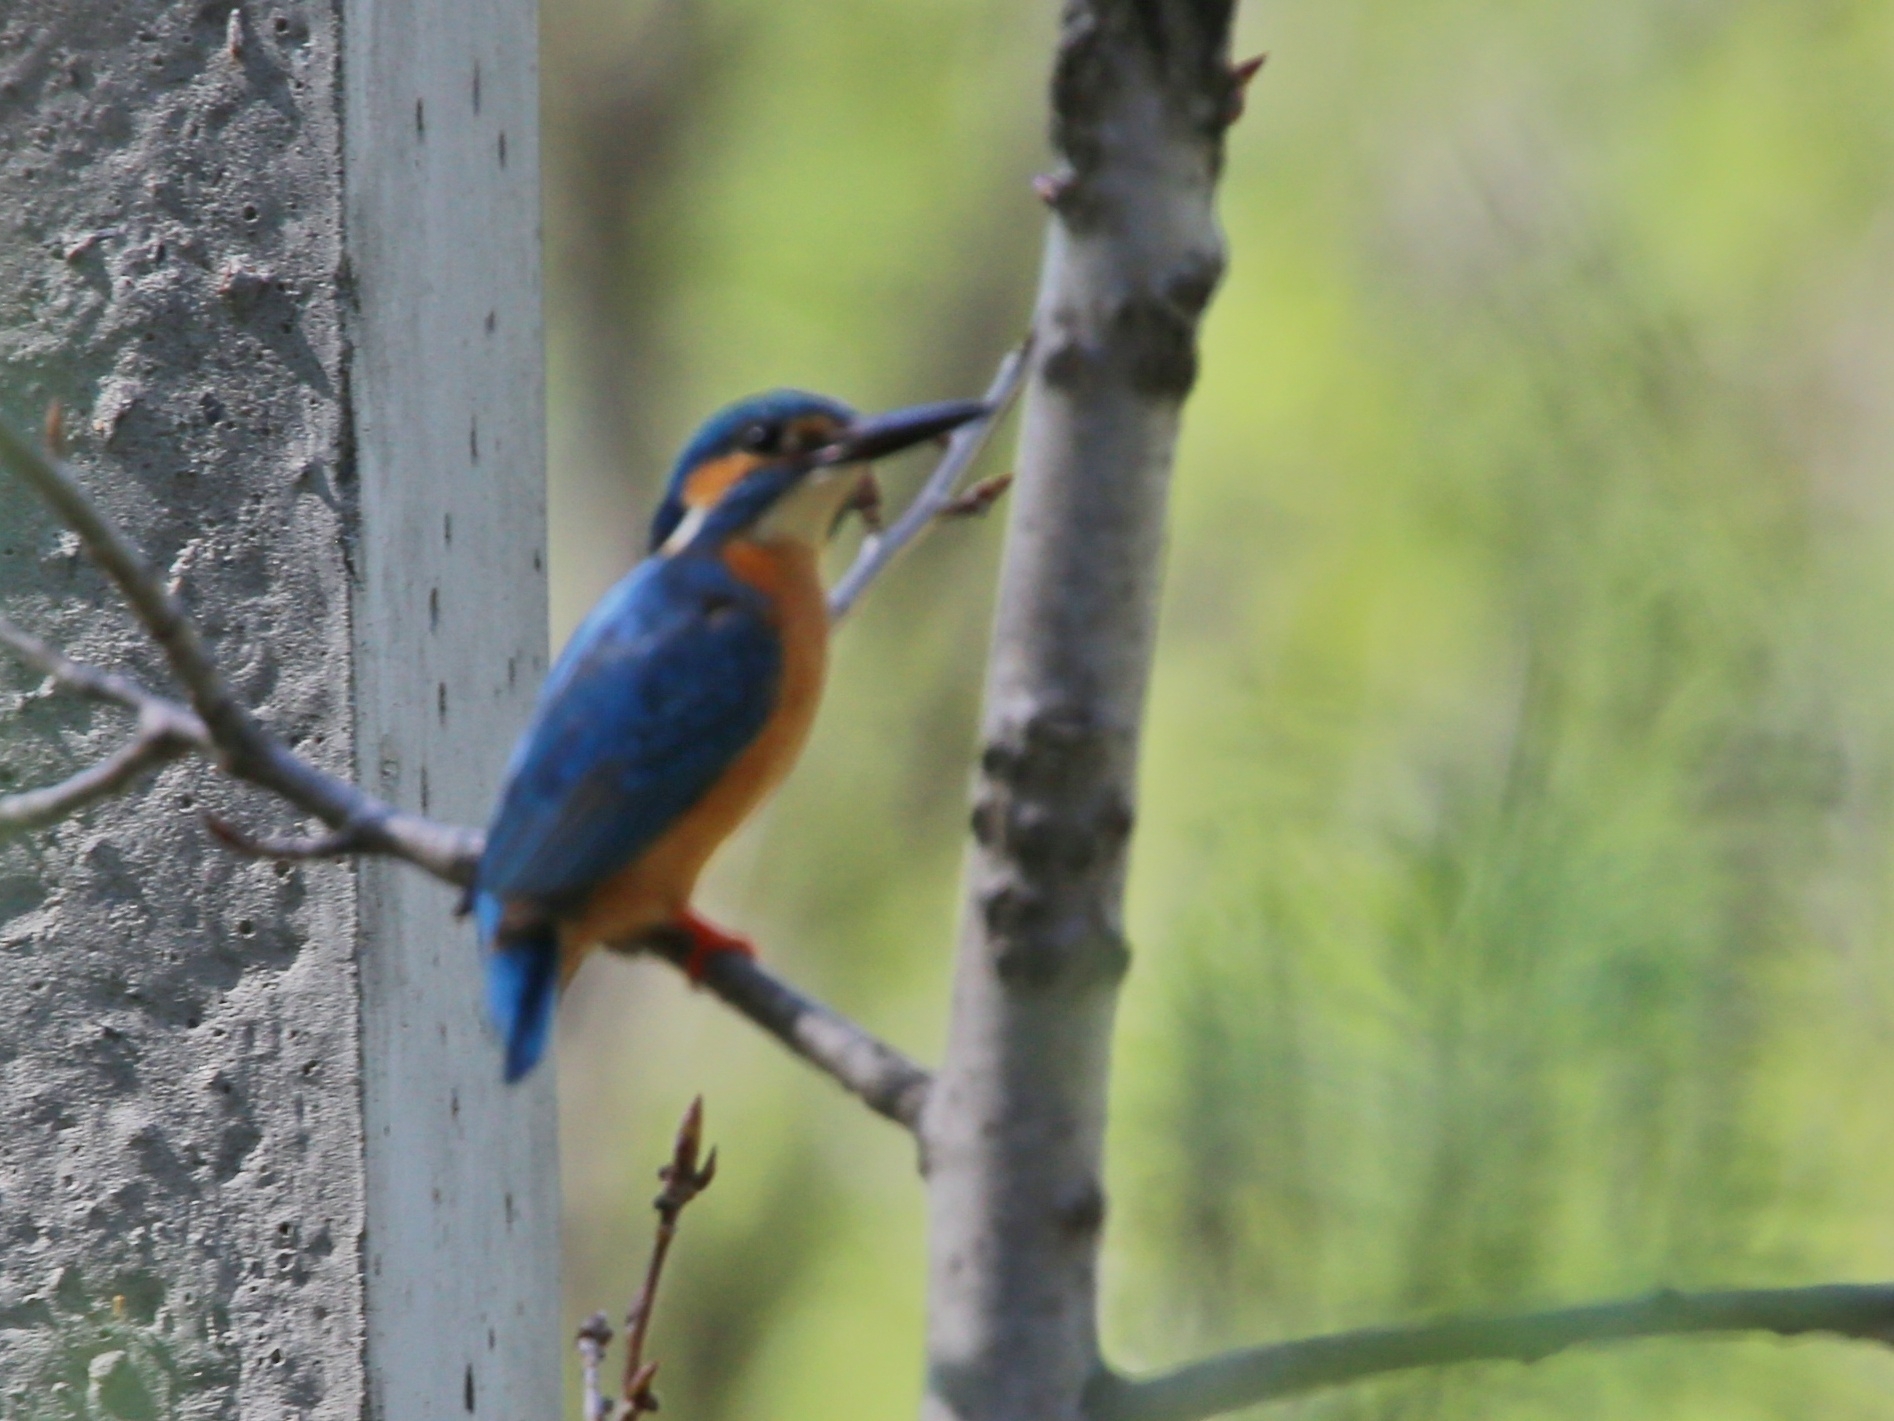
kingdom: Animalia
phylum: Chordata
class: Aves
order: Coraciiformes
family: Alcedinidae
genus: Alcedo
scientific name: Alcedo atthis
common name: Common kingfisher
